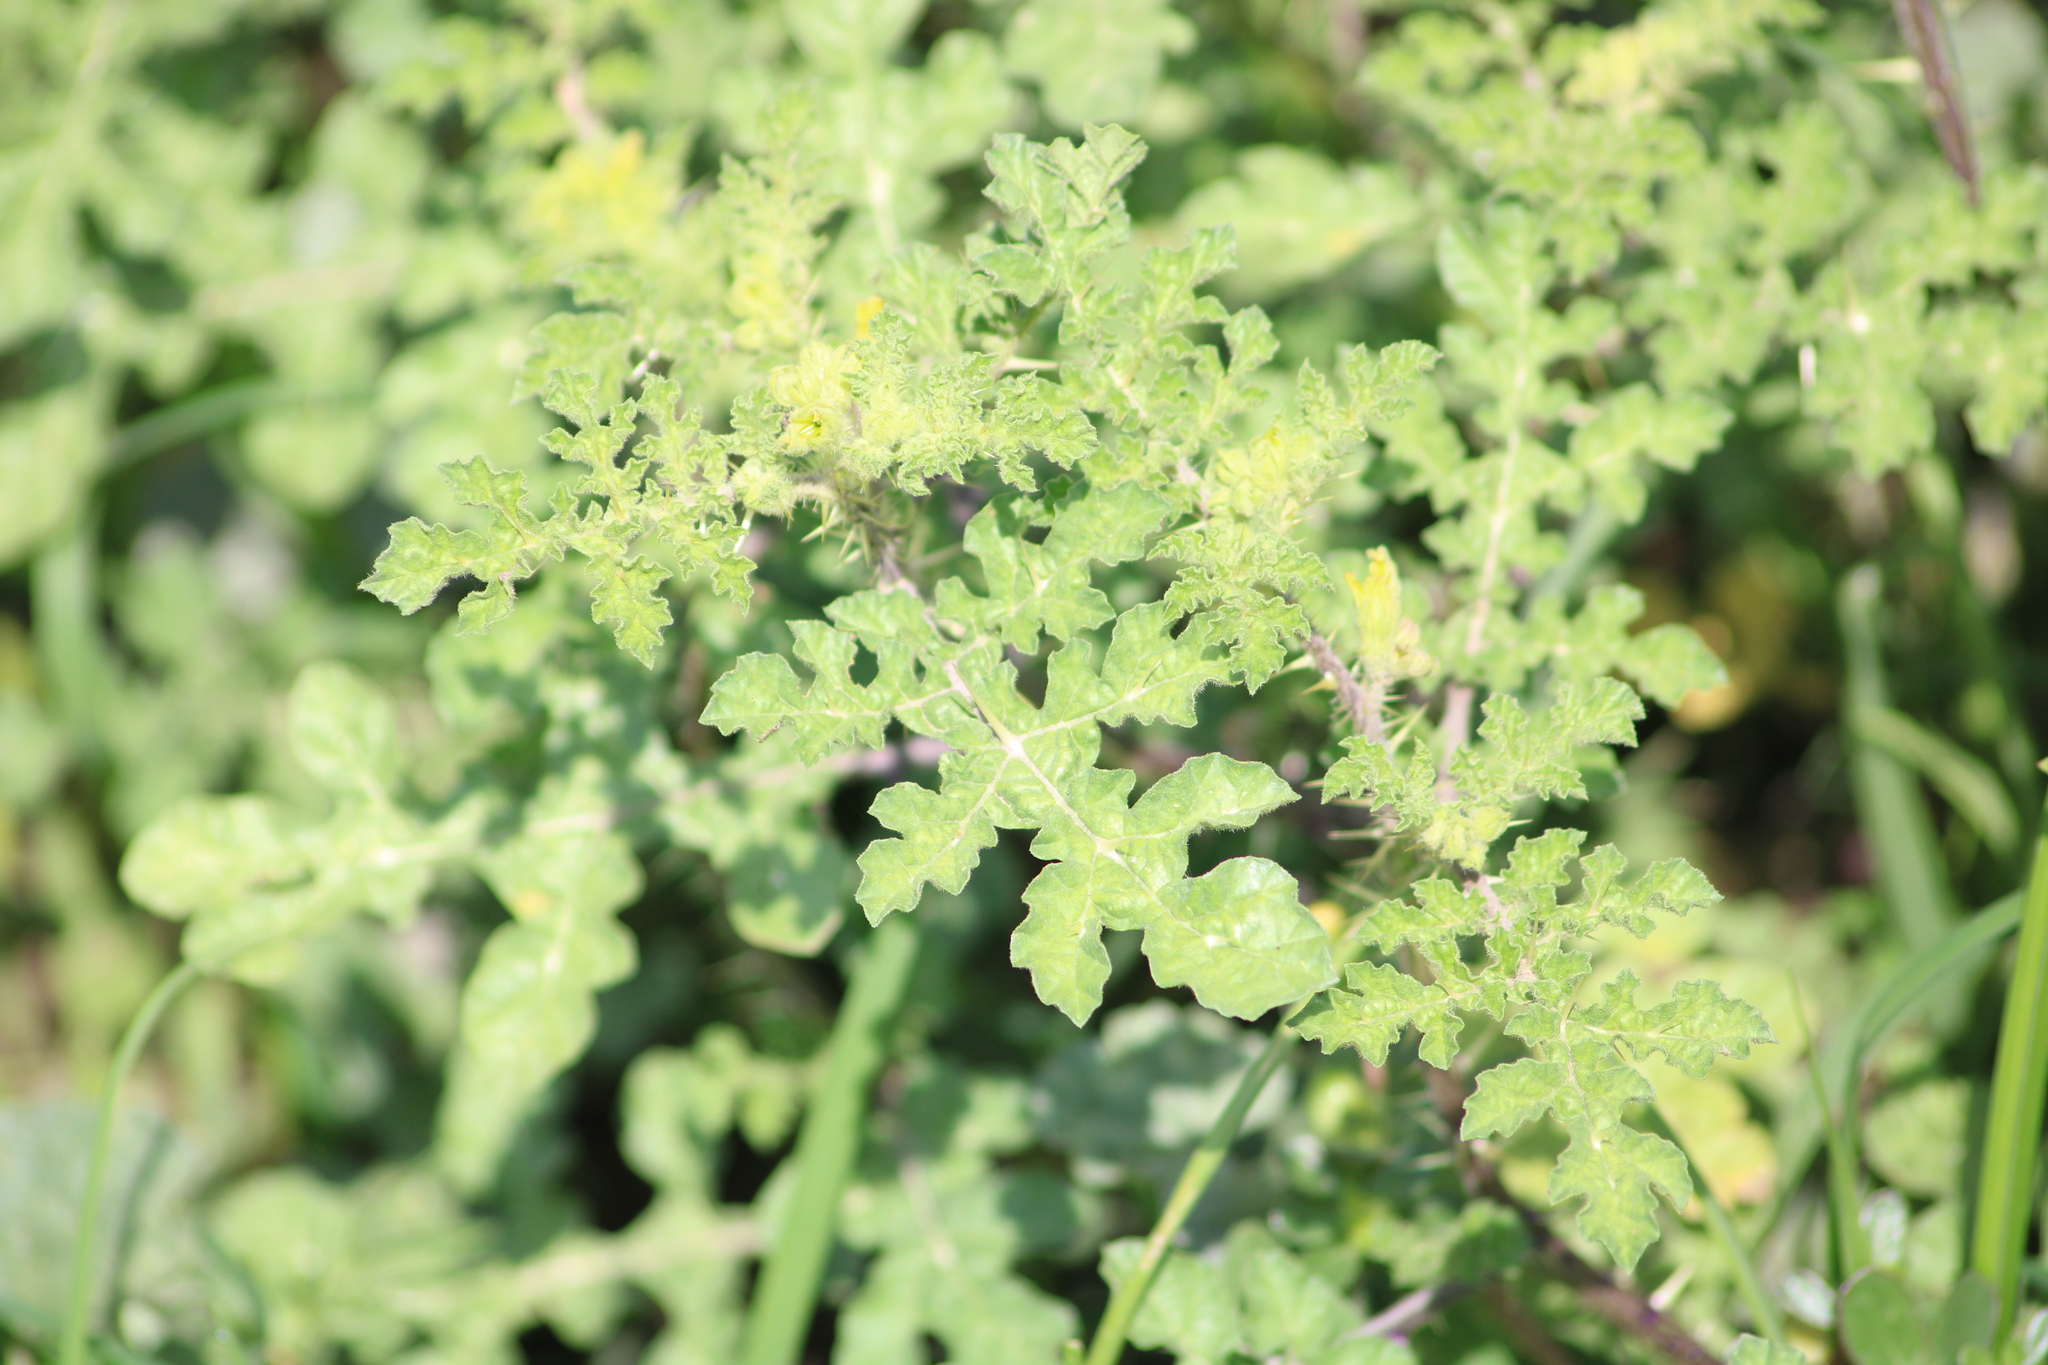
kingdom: Plantae
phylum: Tracheophyta
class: Magnoliopsida
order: Solanales
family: Solanaceae
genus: Solanum
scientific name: Solanum angustifolium
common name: Buffalobur nightshade
